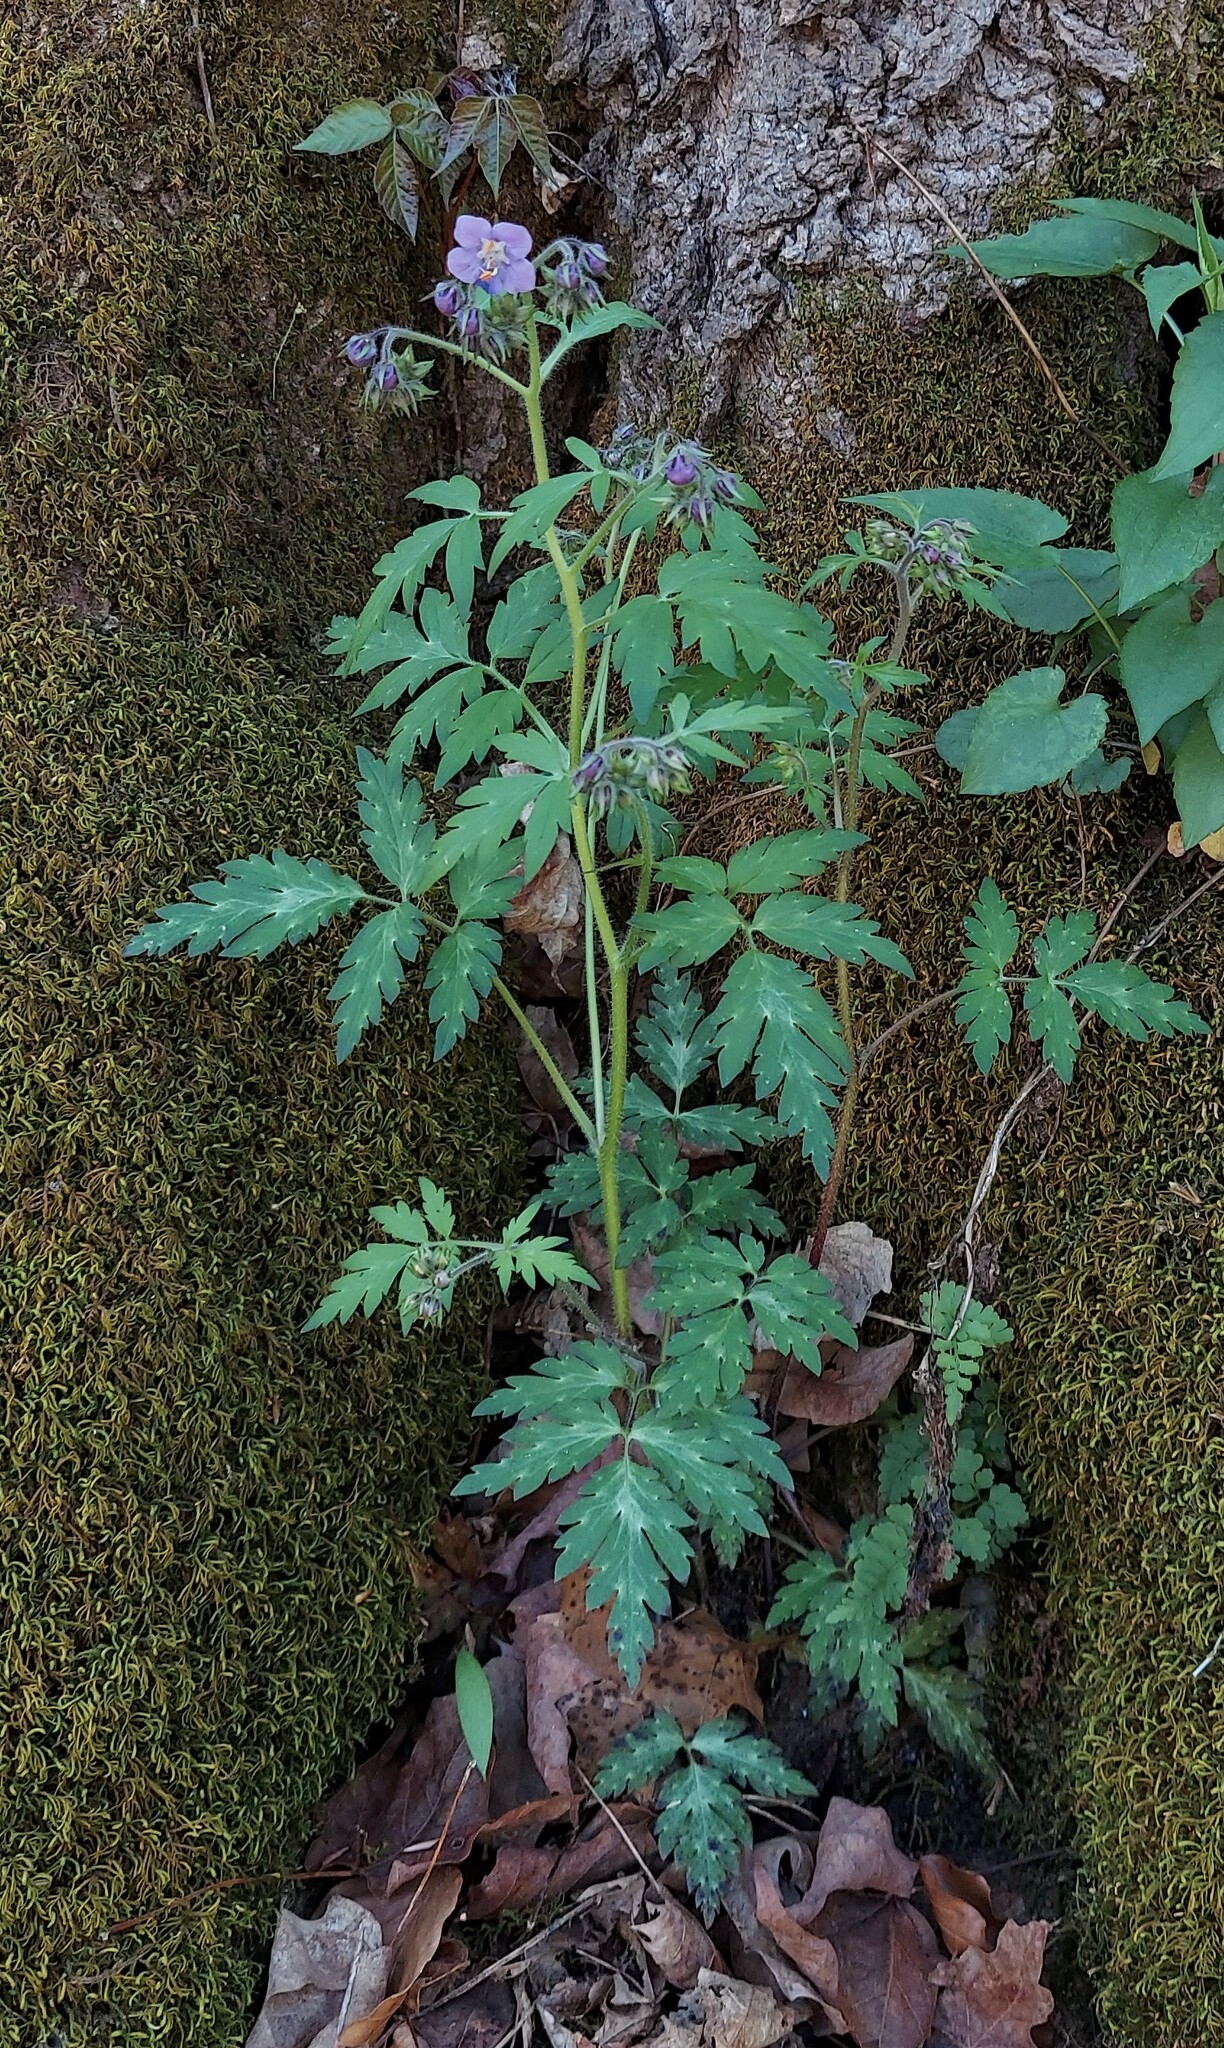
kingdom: Plantae
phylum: Tracheophyta
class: Magnoliopsida
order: Boraginales
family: Hydrophyllaceae
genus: Phacelia
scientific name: Phacelia bipinnatifida
